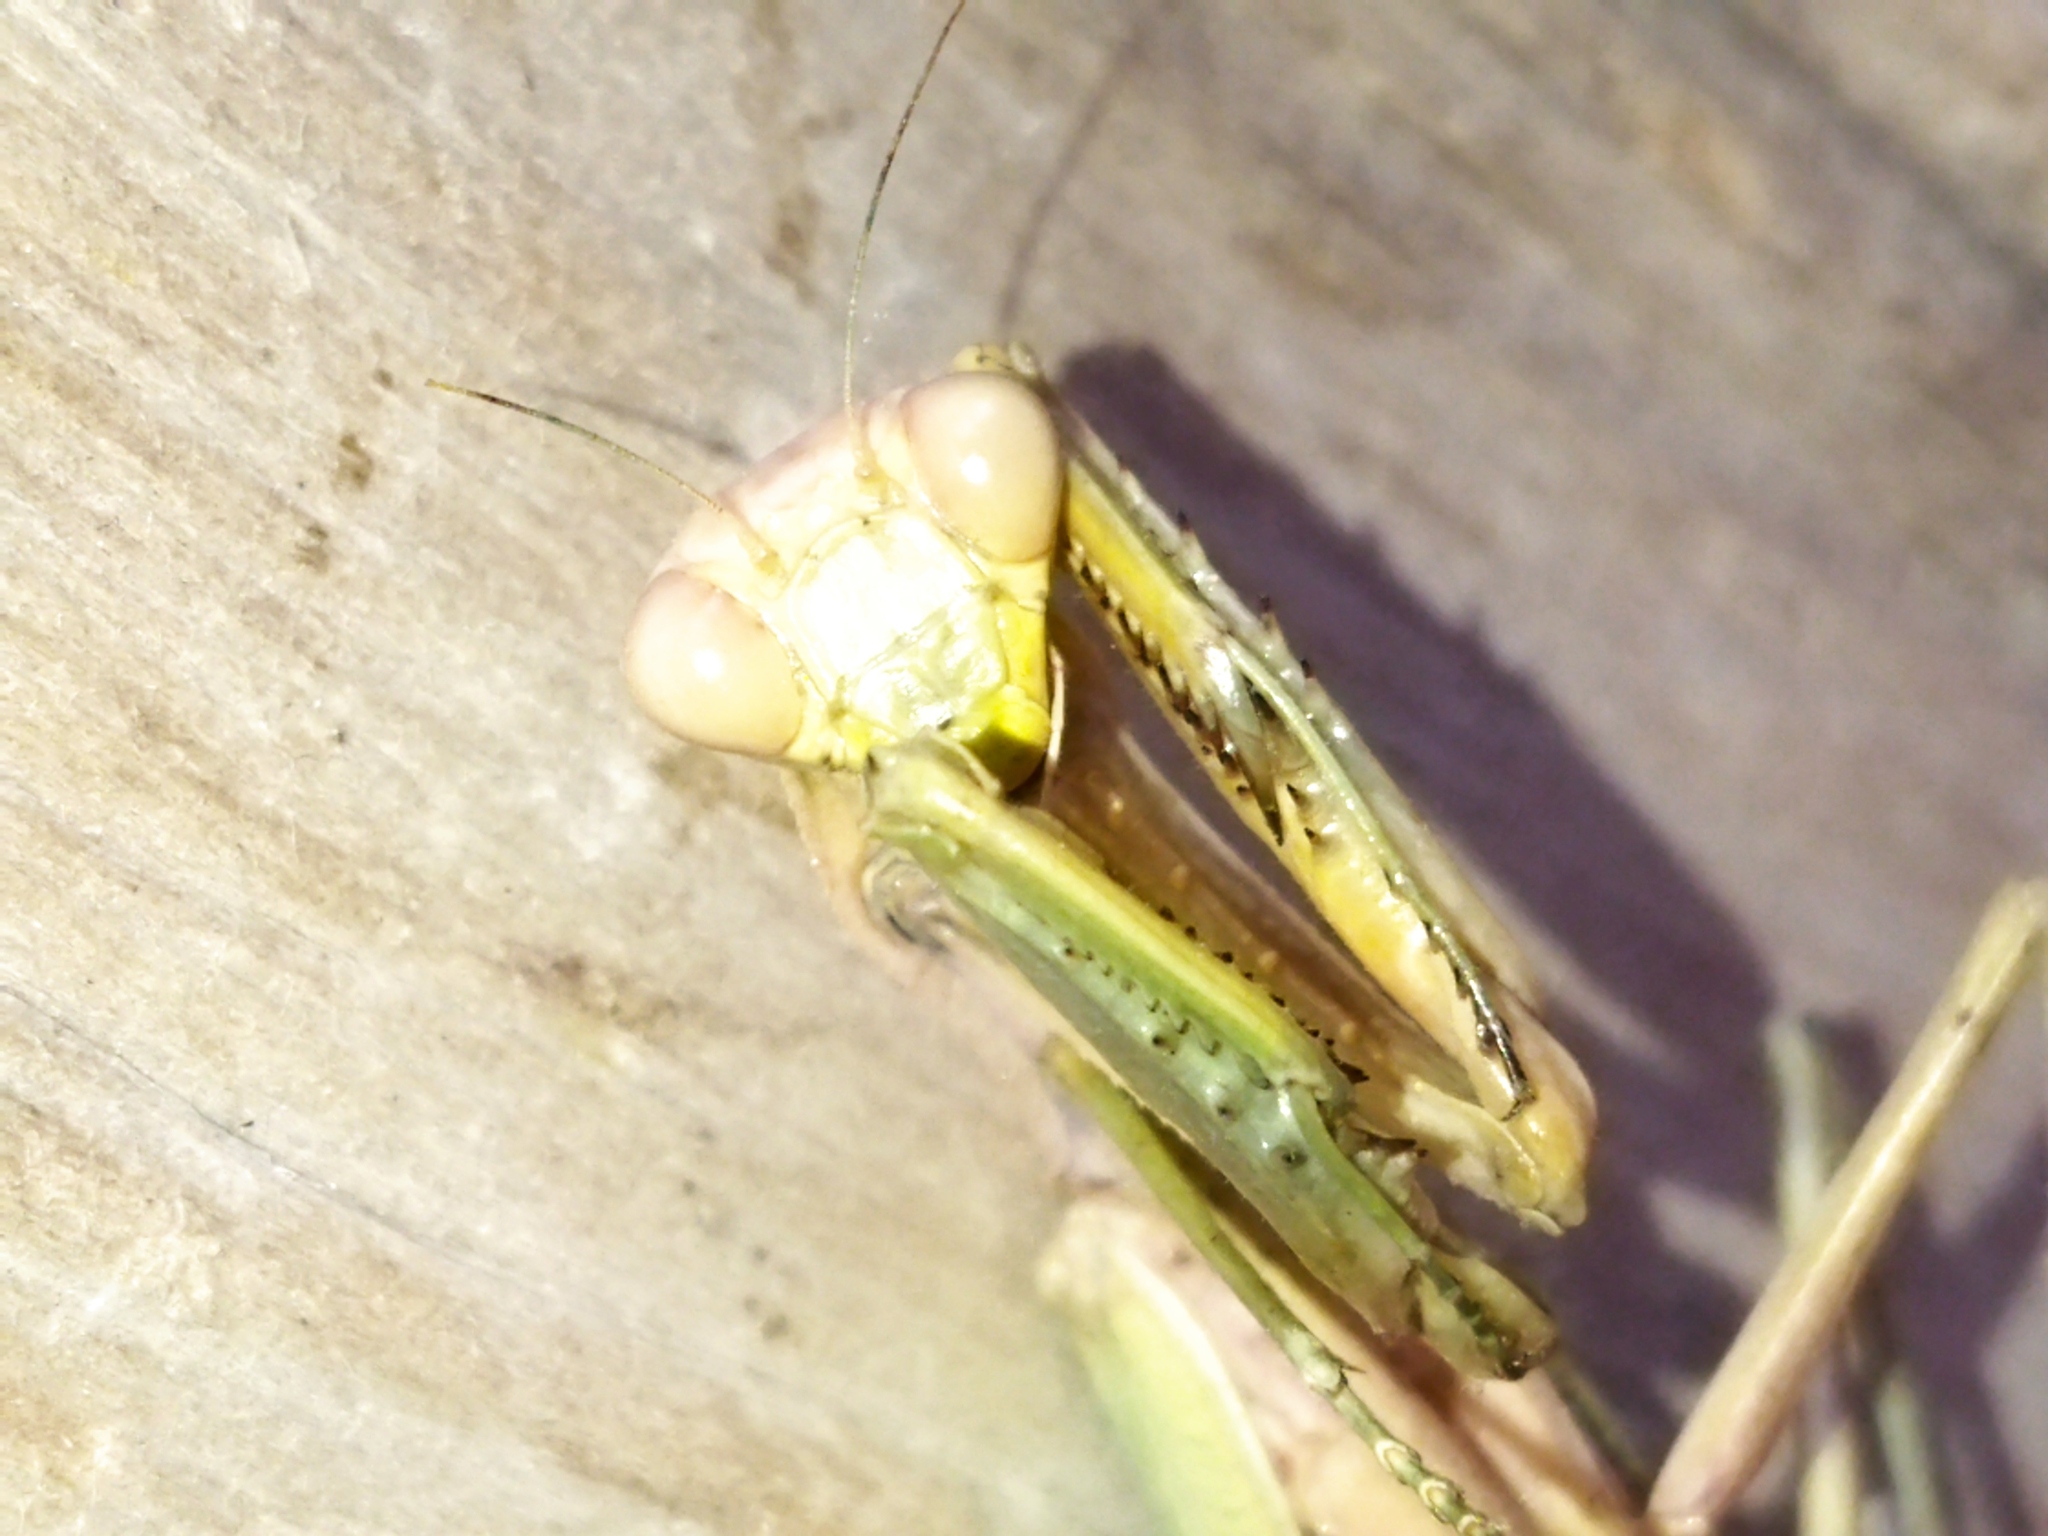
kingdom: Animalia
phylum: Arthropoda
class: Insecta
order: Mantodea
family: Mantidae
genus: Hierodula
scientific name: Hierodula transcaucasica
